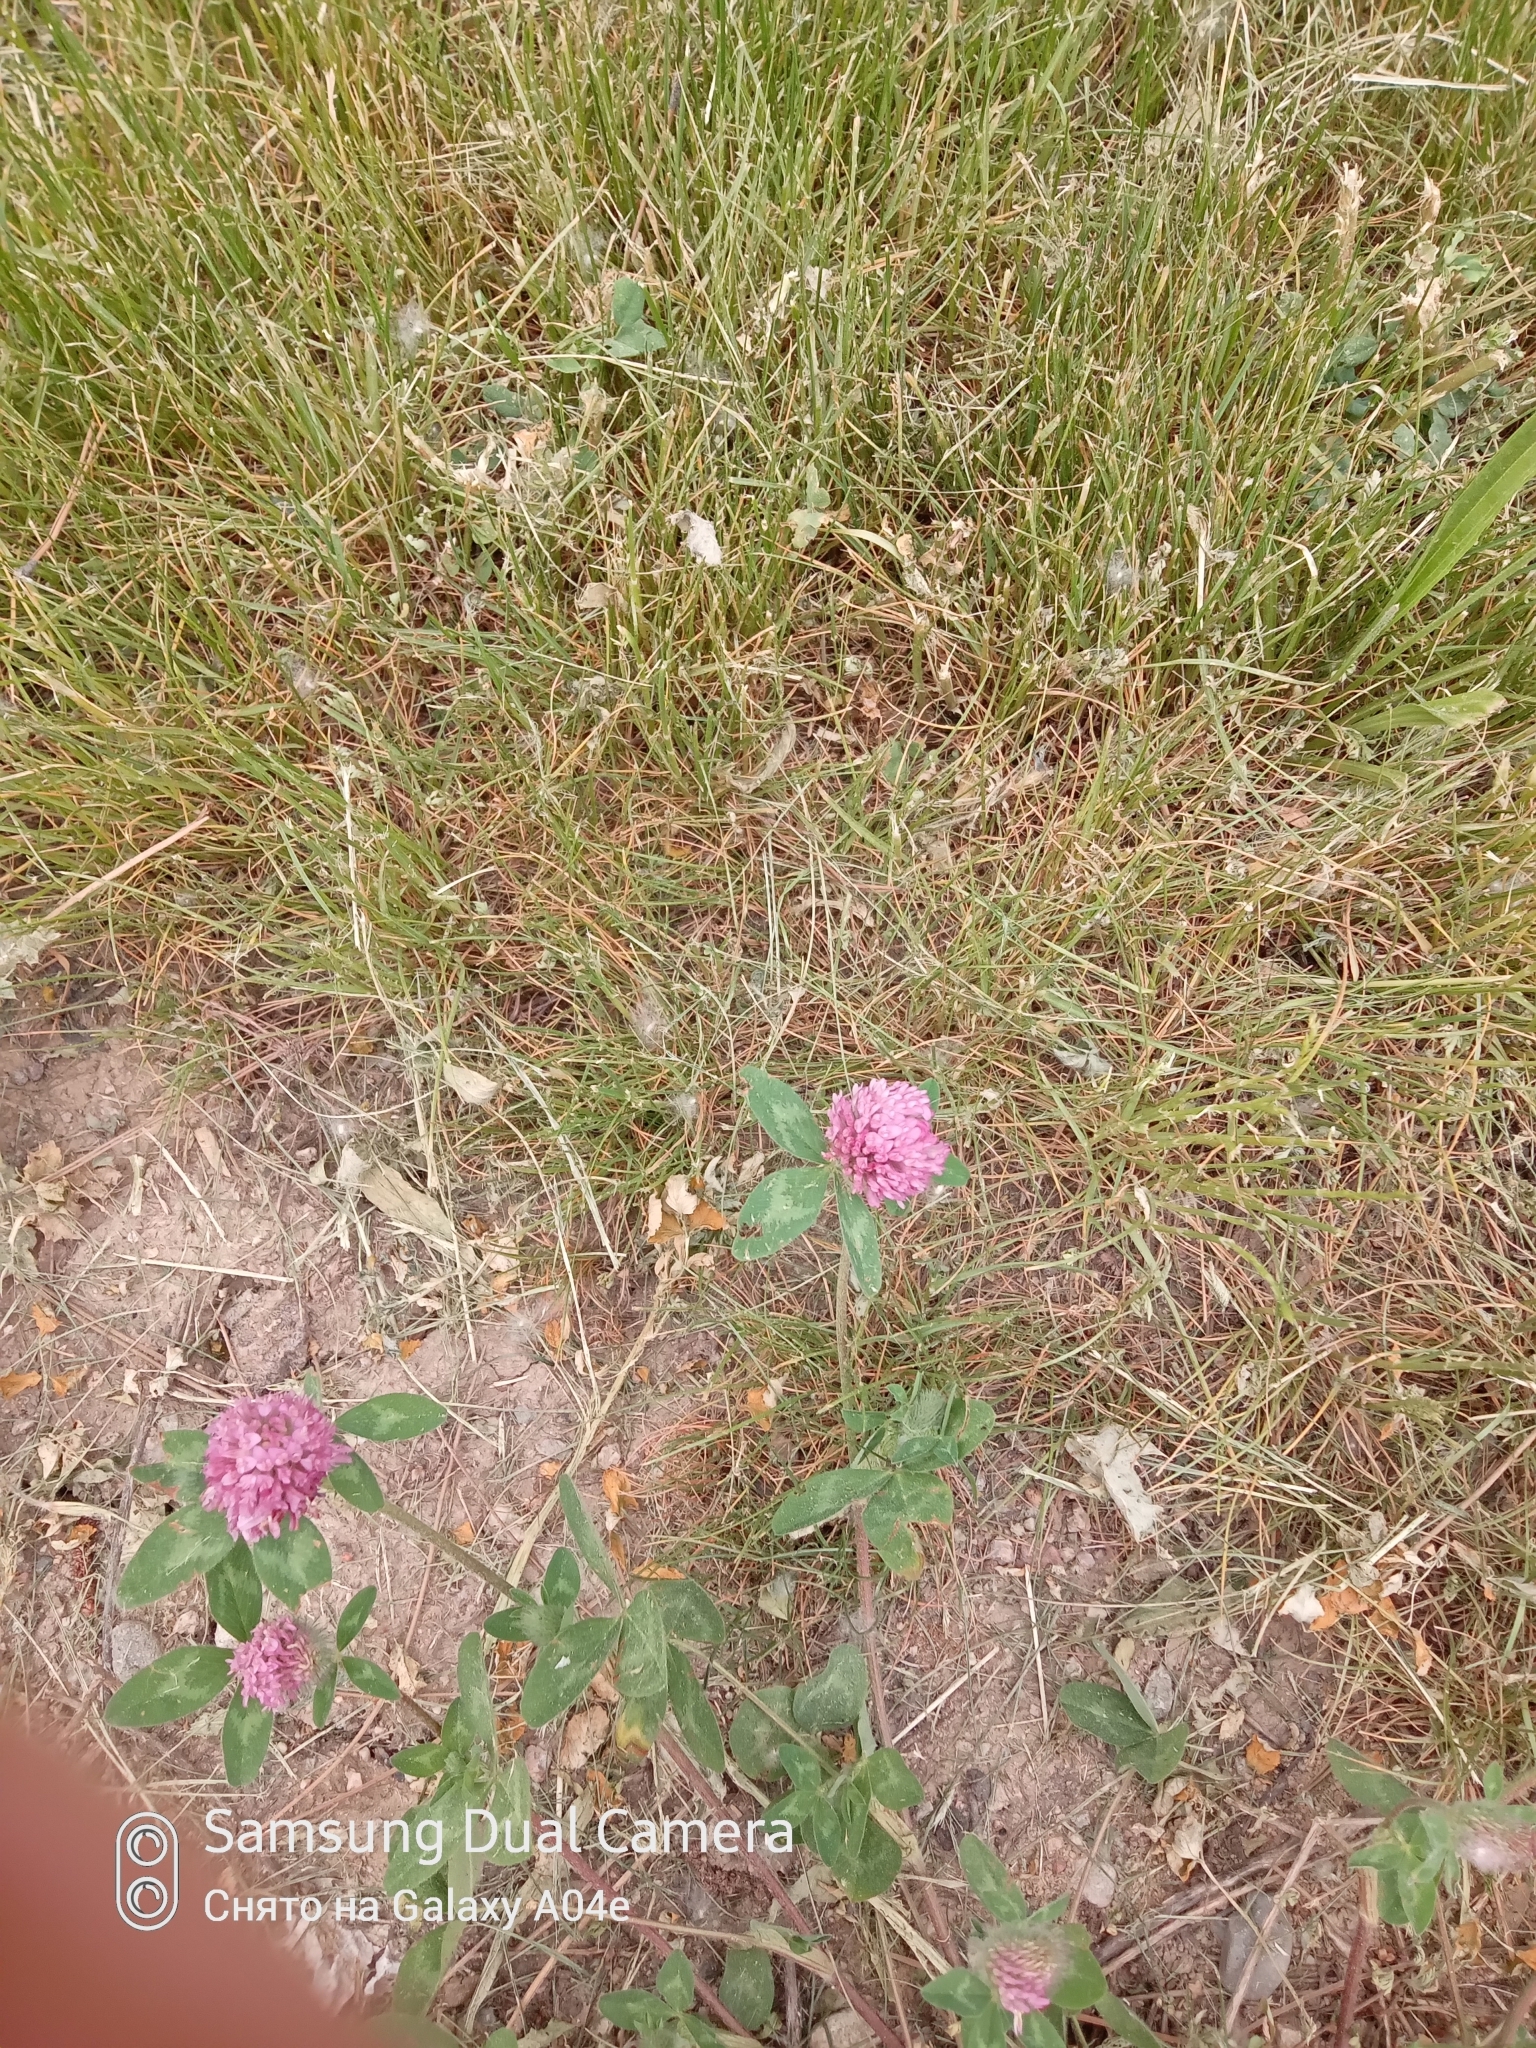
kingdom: Plantae
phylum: Tracheophyta
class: Magnoliopsida
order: Fabales
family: Fabaceae
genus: Trifolium
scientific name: Trifolium pratense
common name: Red clover
